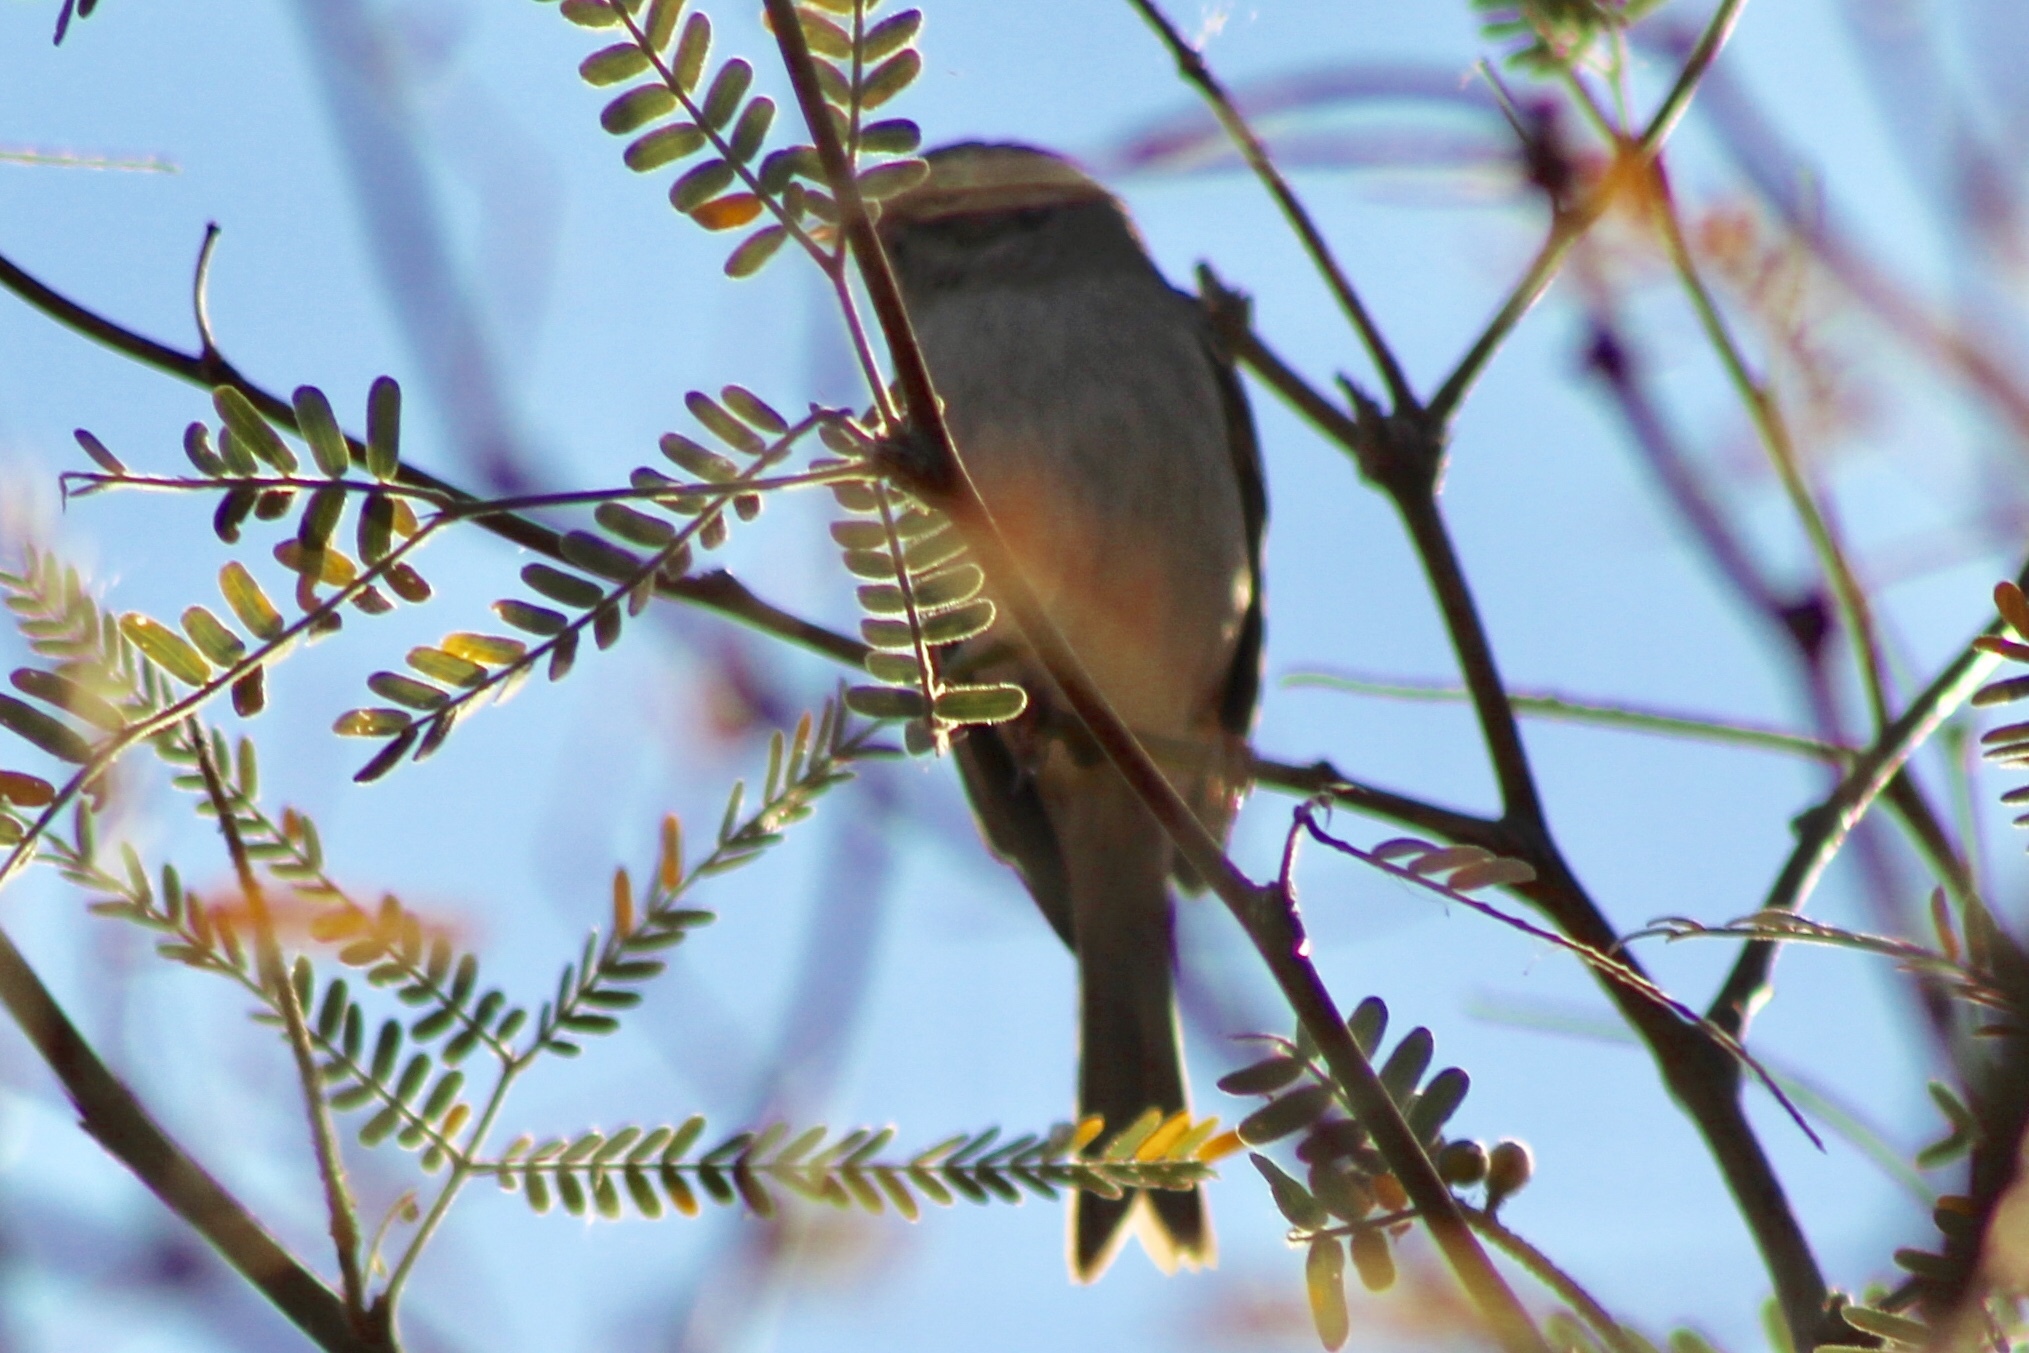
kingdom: Animalia
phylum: Chordata
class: Aves
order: Passeriformes
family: Passerellidae
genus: Spizella
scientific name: Spizella
